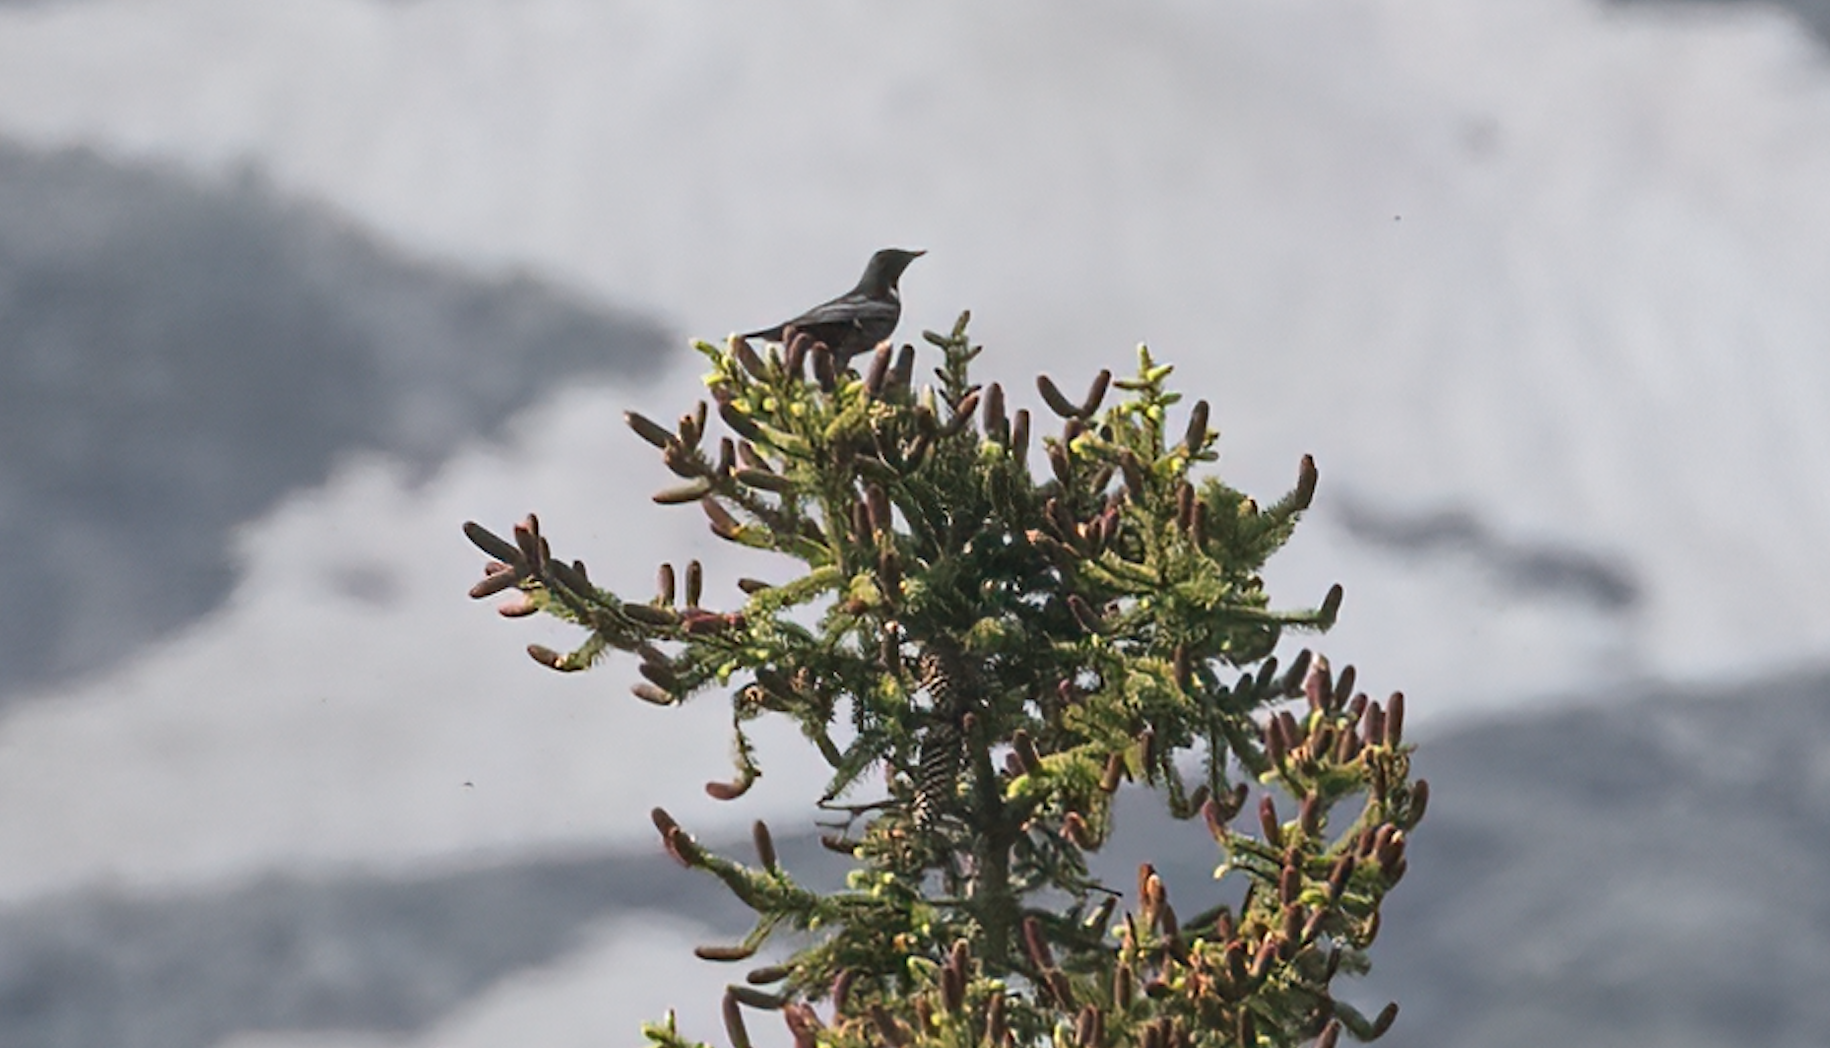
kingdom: Animalia
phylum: Chordata
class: Aves
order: Passeriformes
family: Turdidae
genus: Turdus
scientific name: Turdus torquatus
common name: Ring ouzel
